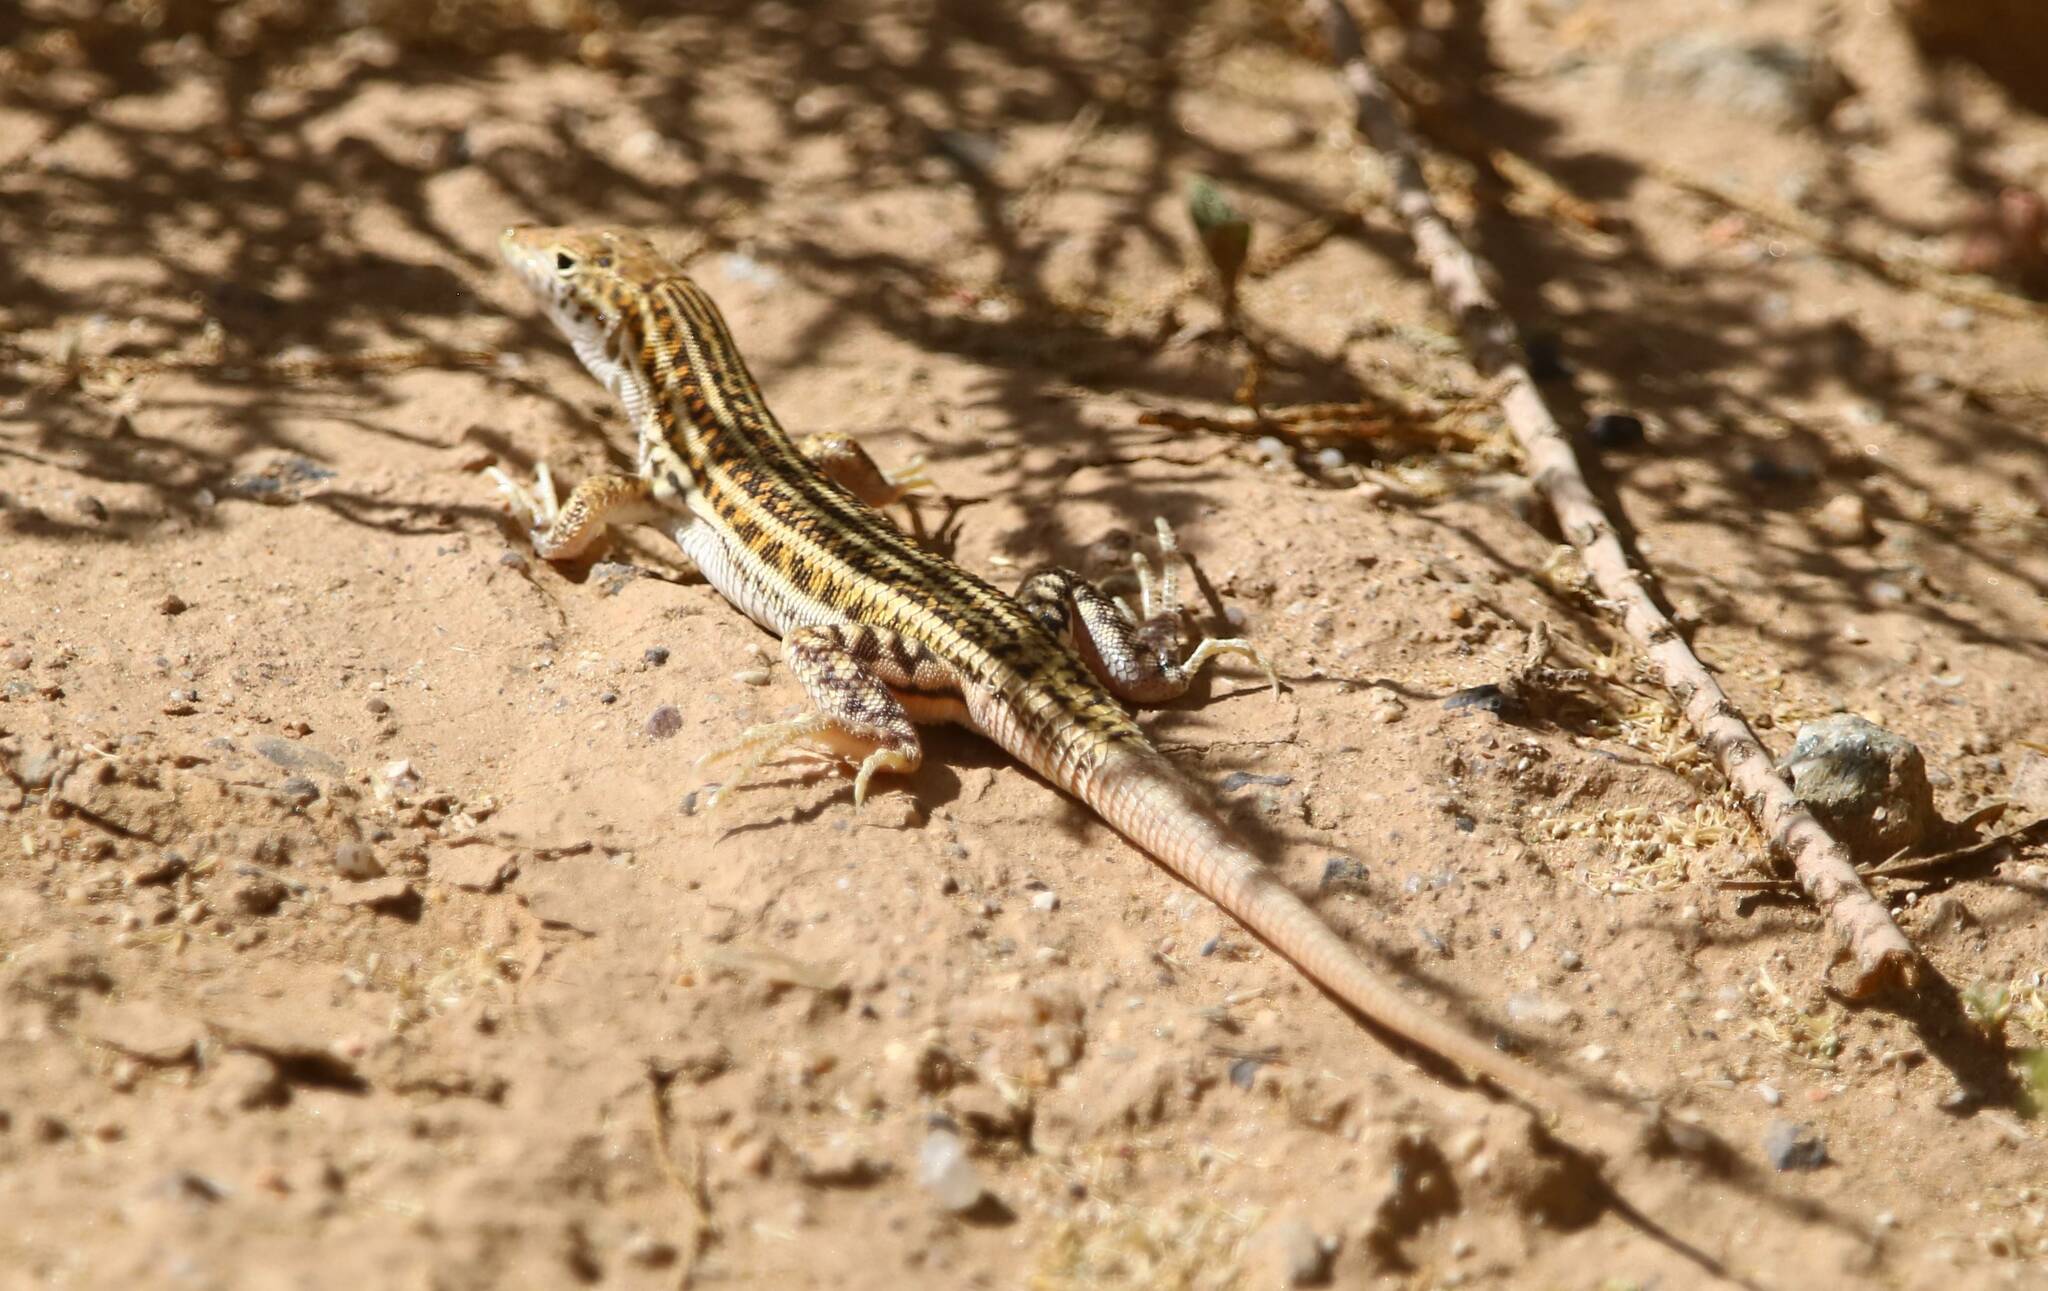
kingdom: Animalia
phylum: Chordata
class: Squamata
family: Lacertidae
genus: Acanthodactylus
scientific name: Acanthodactylus boskianus
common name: Bosc’s fringe-toed lizard
